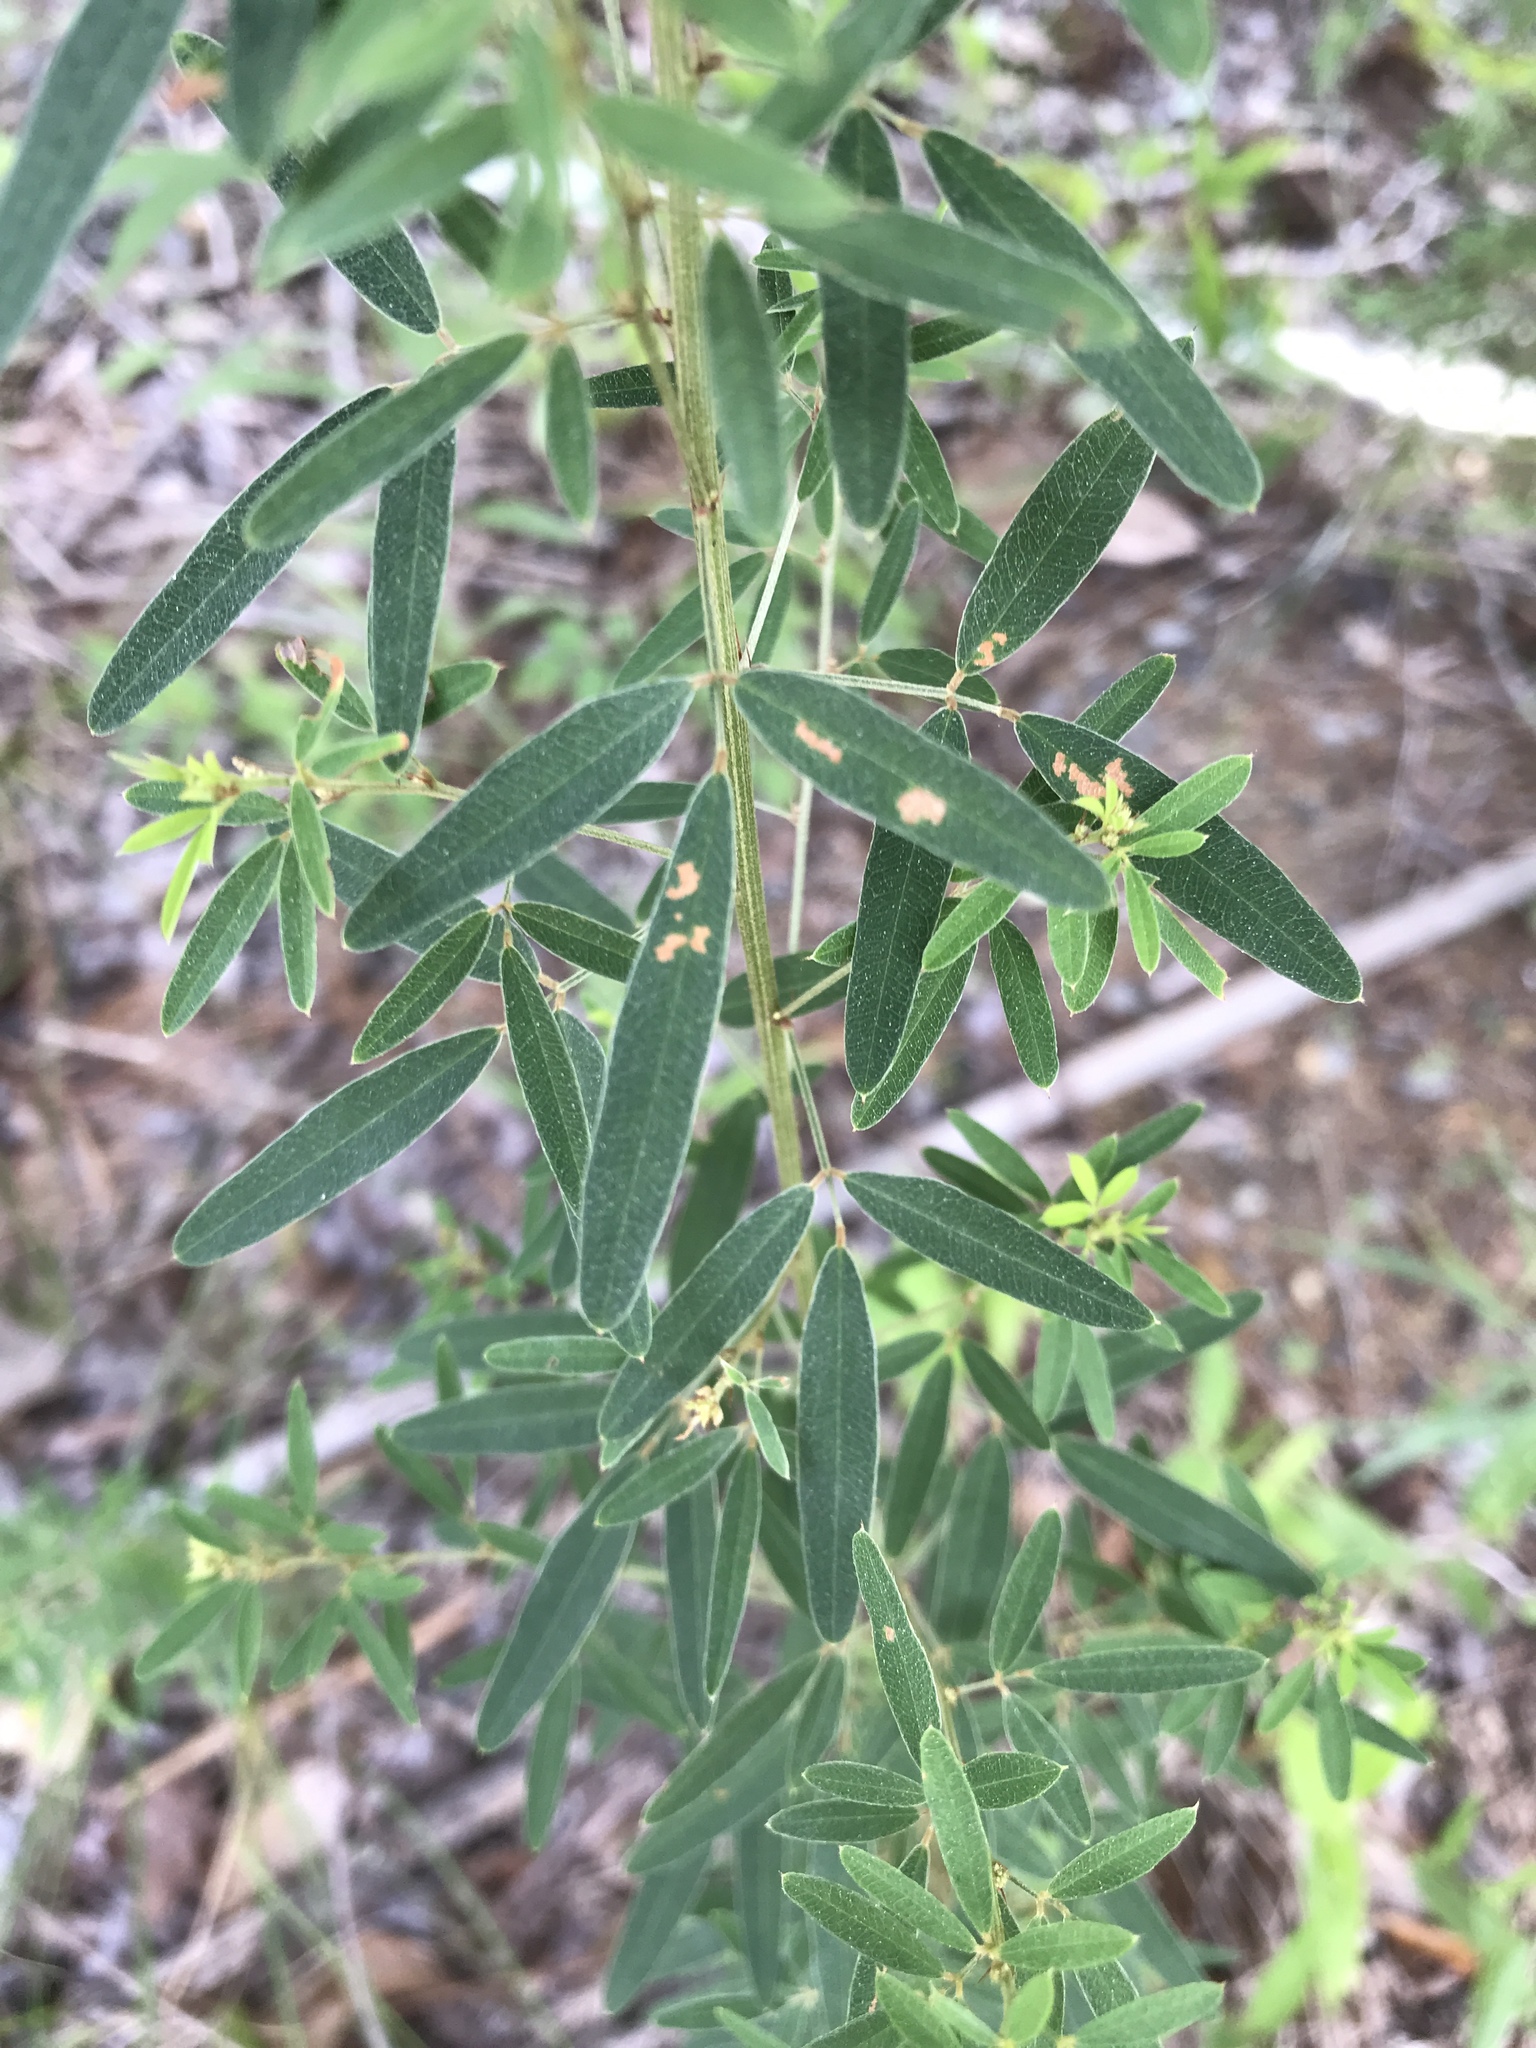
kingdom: Plantae
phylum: Tracheophyta
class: Magnoliopsida
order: Fabales
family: Fabaceae
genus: Lespedeza
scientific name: Lespedeza virginica
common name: Slender bush-clover
